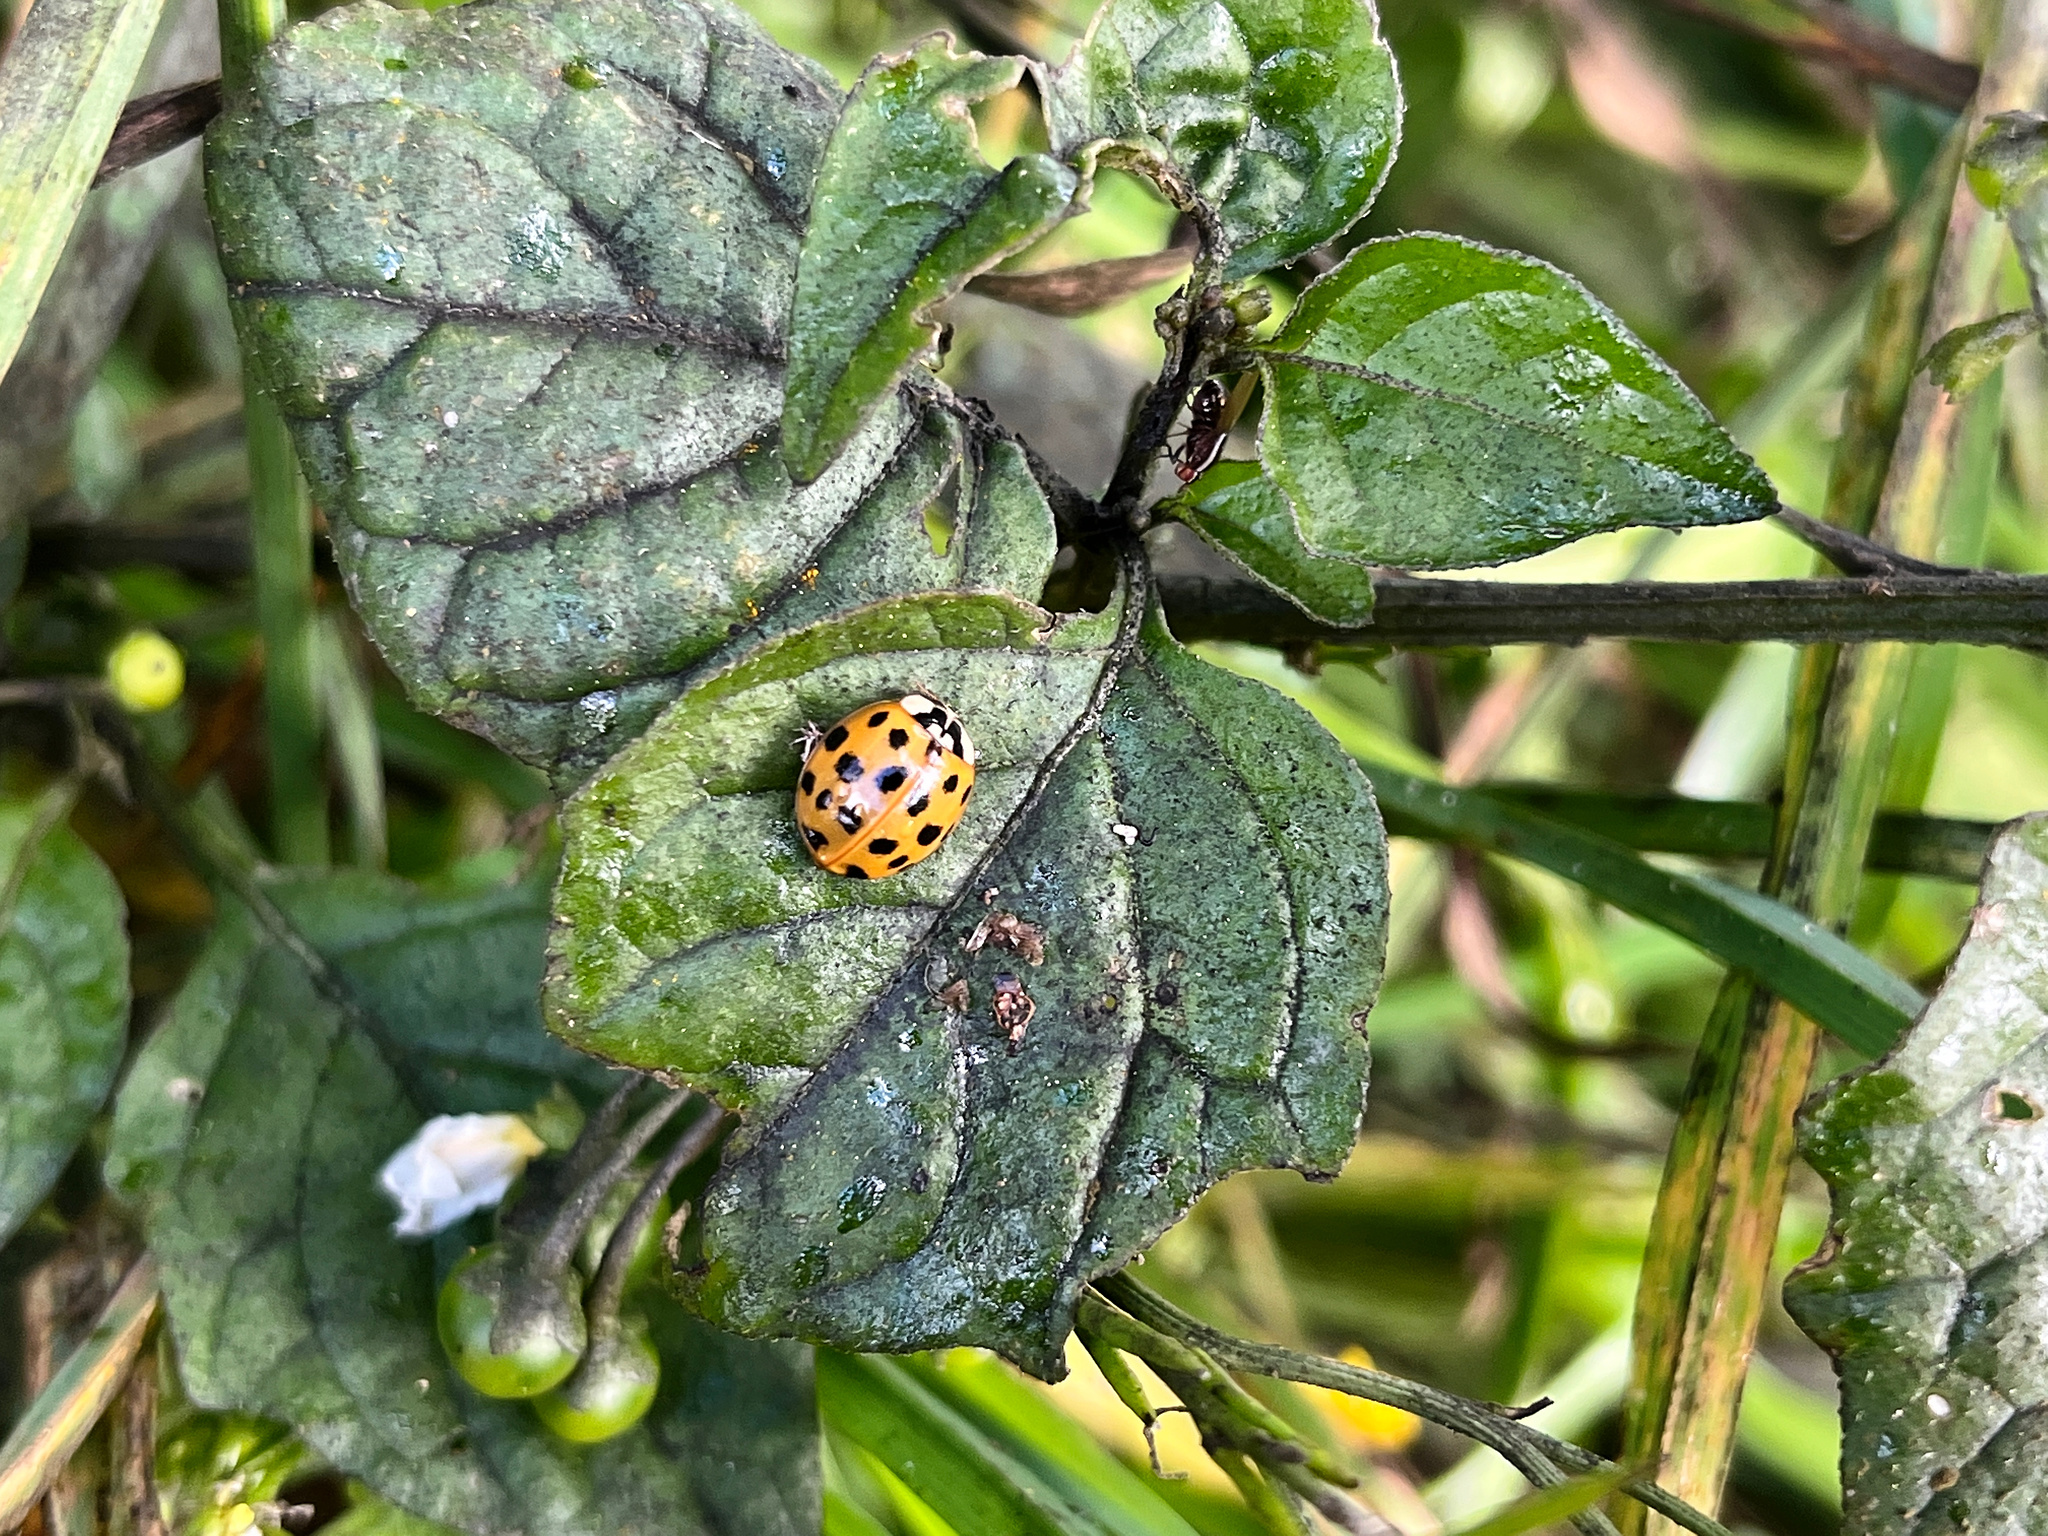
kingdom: Animalia
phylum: Arthropoda
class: Insecta
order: Coleoptera
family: Coccinellidae
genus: Harmonia
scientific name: Harmonia axyridis
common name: Harlequin ladybird
